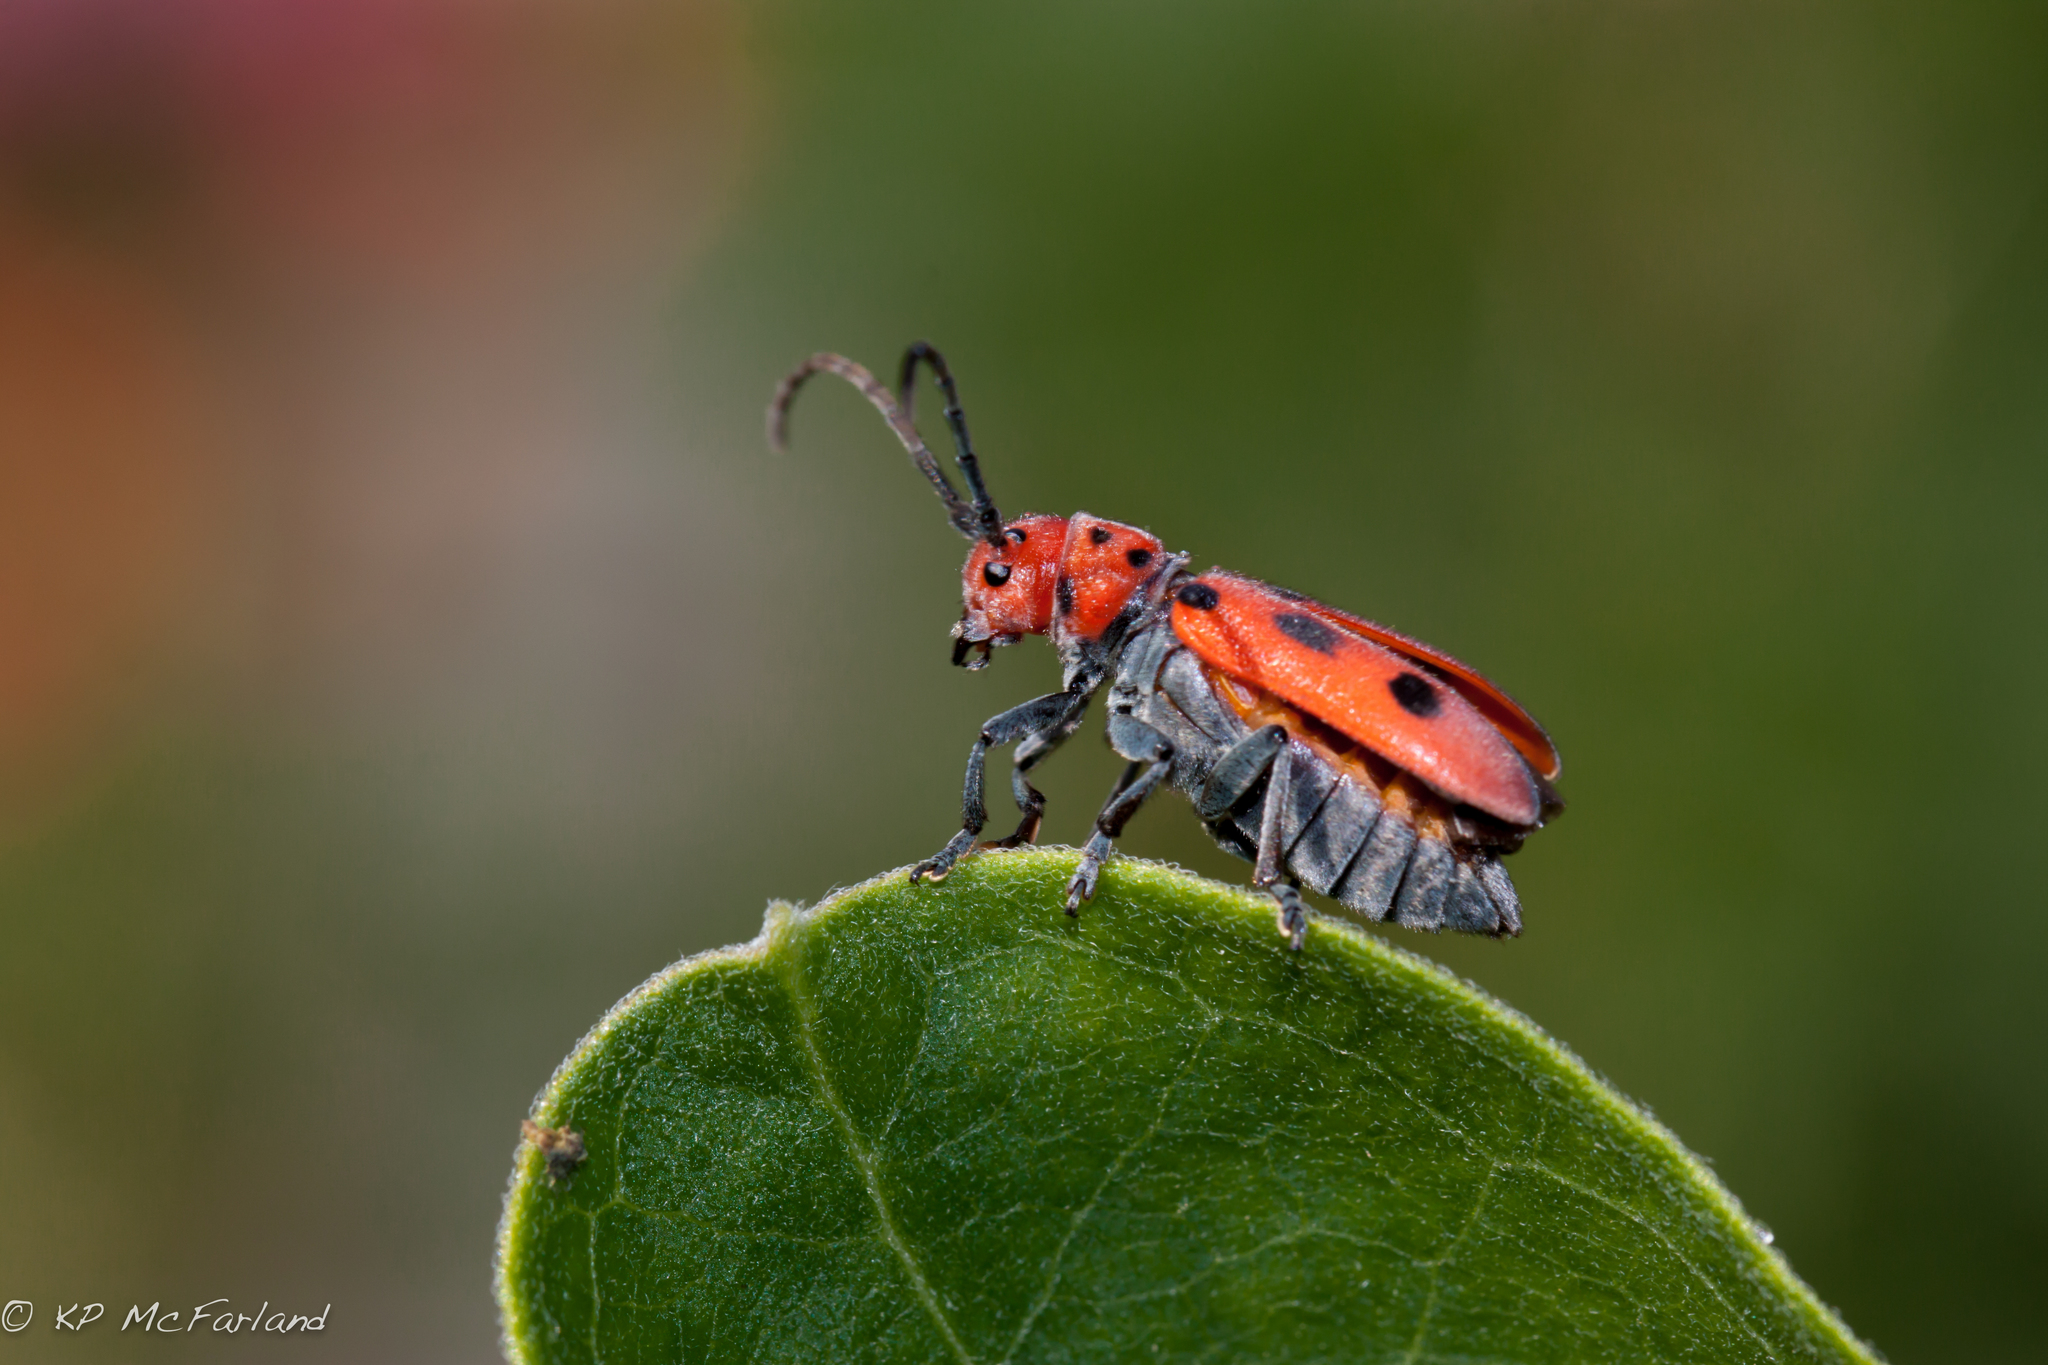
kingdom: Animalia
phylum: Arthropoda
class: Insecta
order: Coleoptera
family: Cerambycidae
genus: Tetraopes
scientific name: Tetraopes tetrophthalmus
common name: Red milkweed beetle
